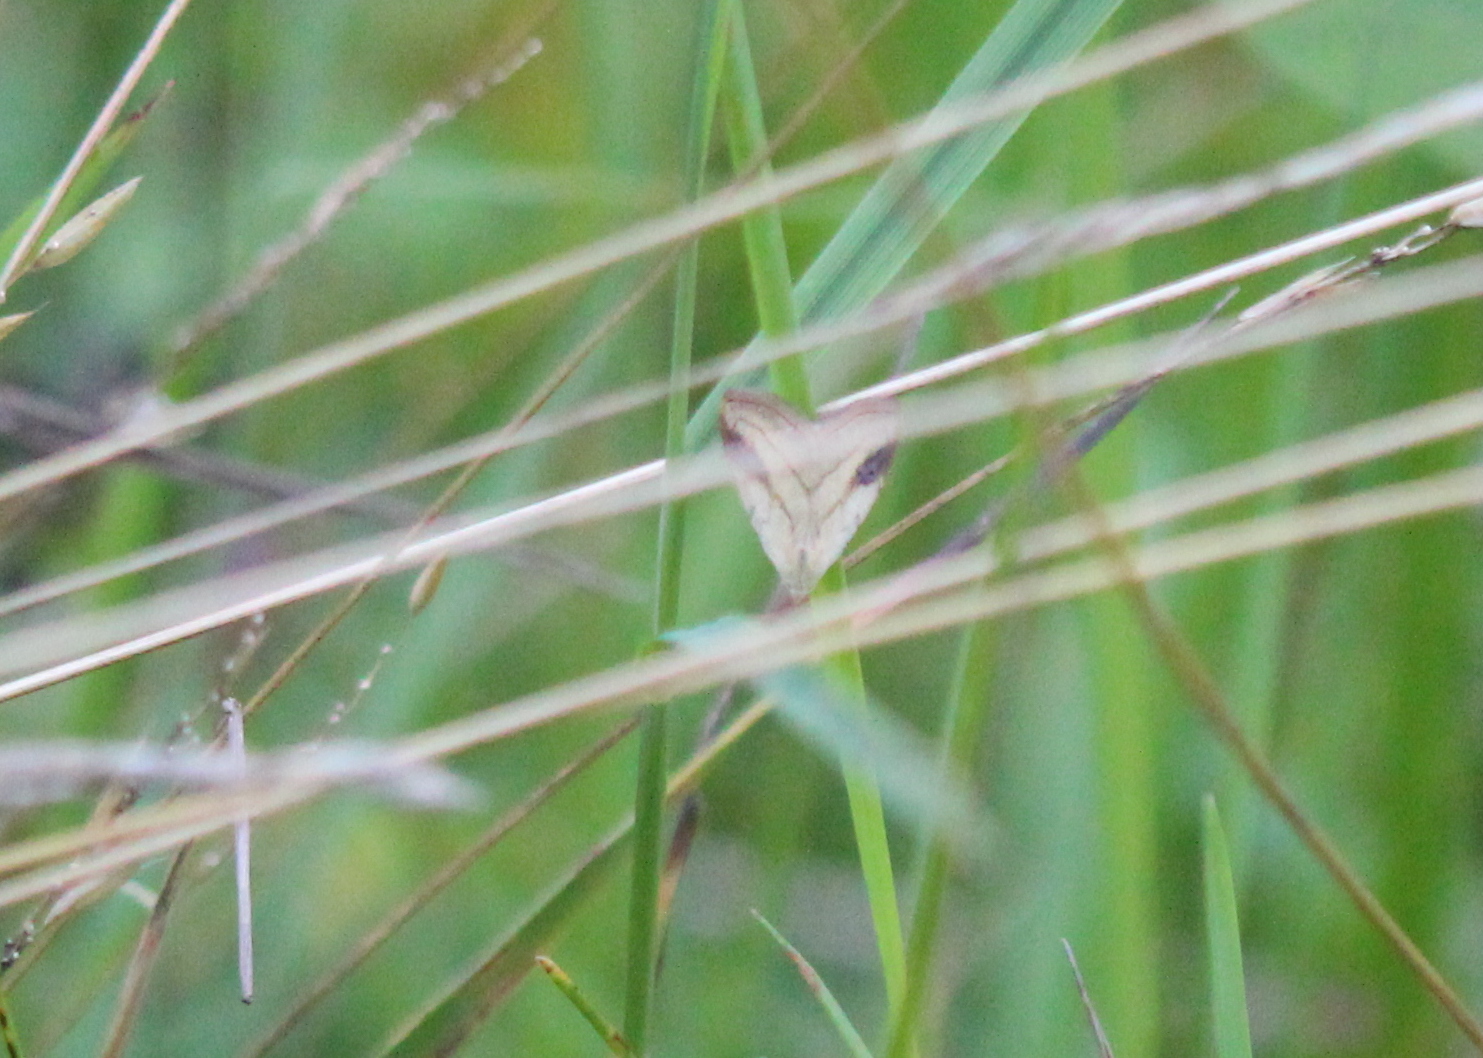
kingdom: Animalia
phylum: Arthropoda
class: Insecta
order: Lepidoptera
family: Erebidae
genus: Rivula
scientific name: Rivula propinqualis
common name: Spotted grass moth
